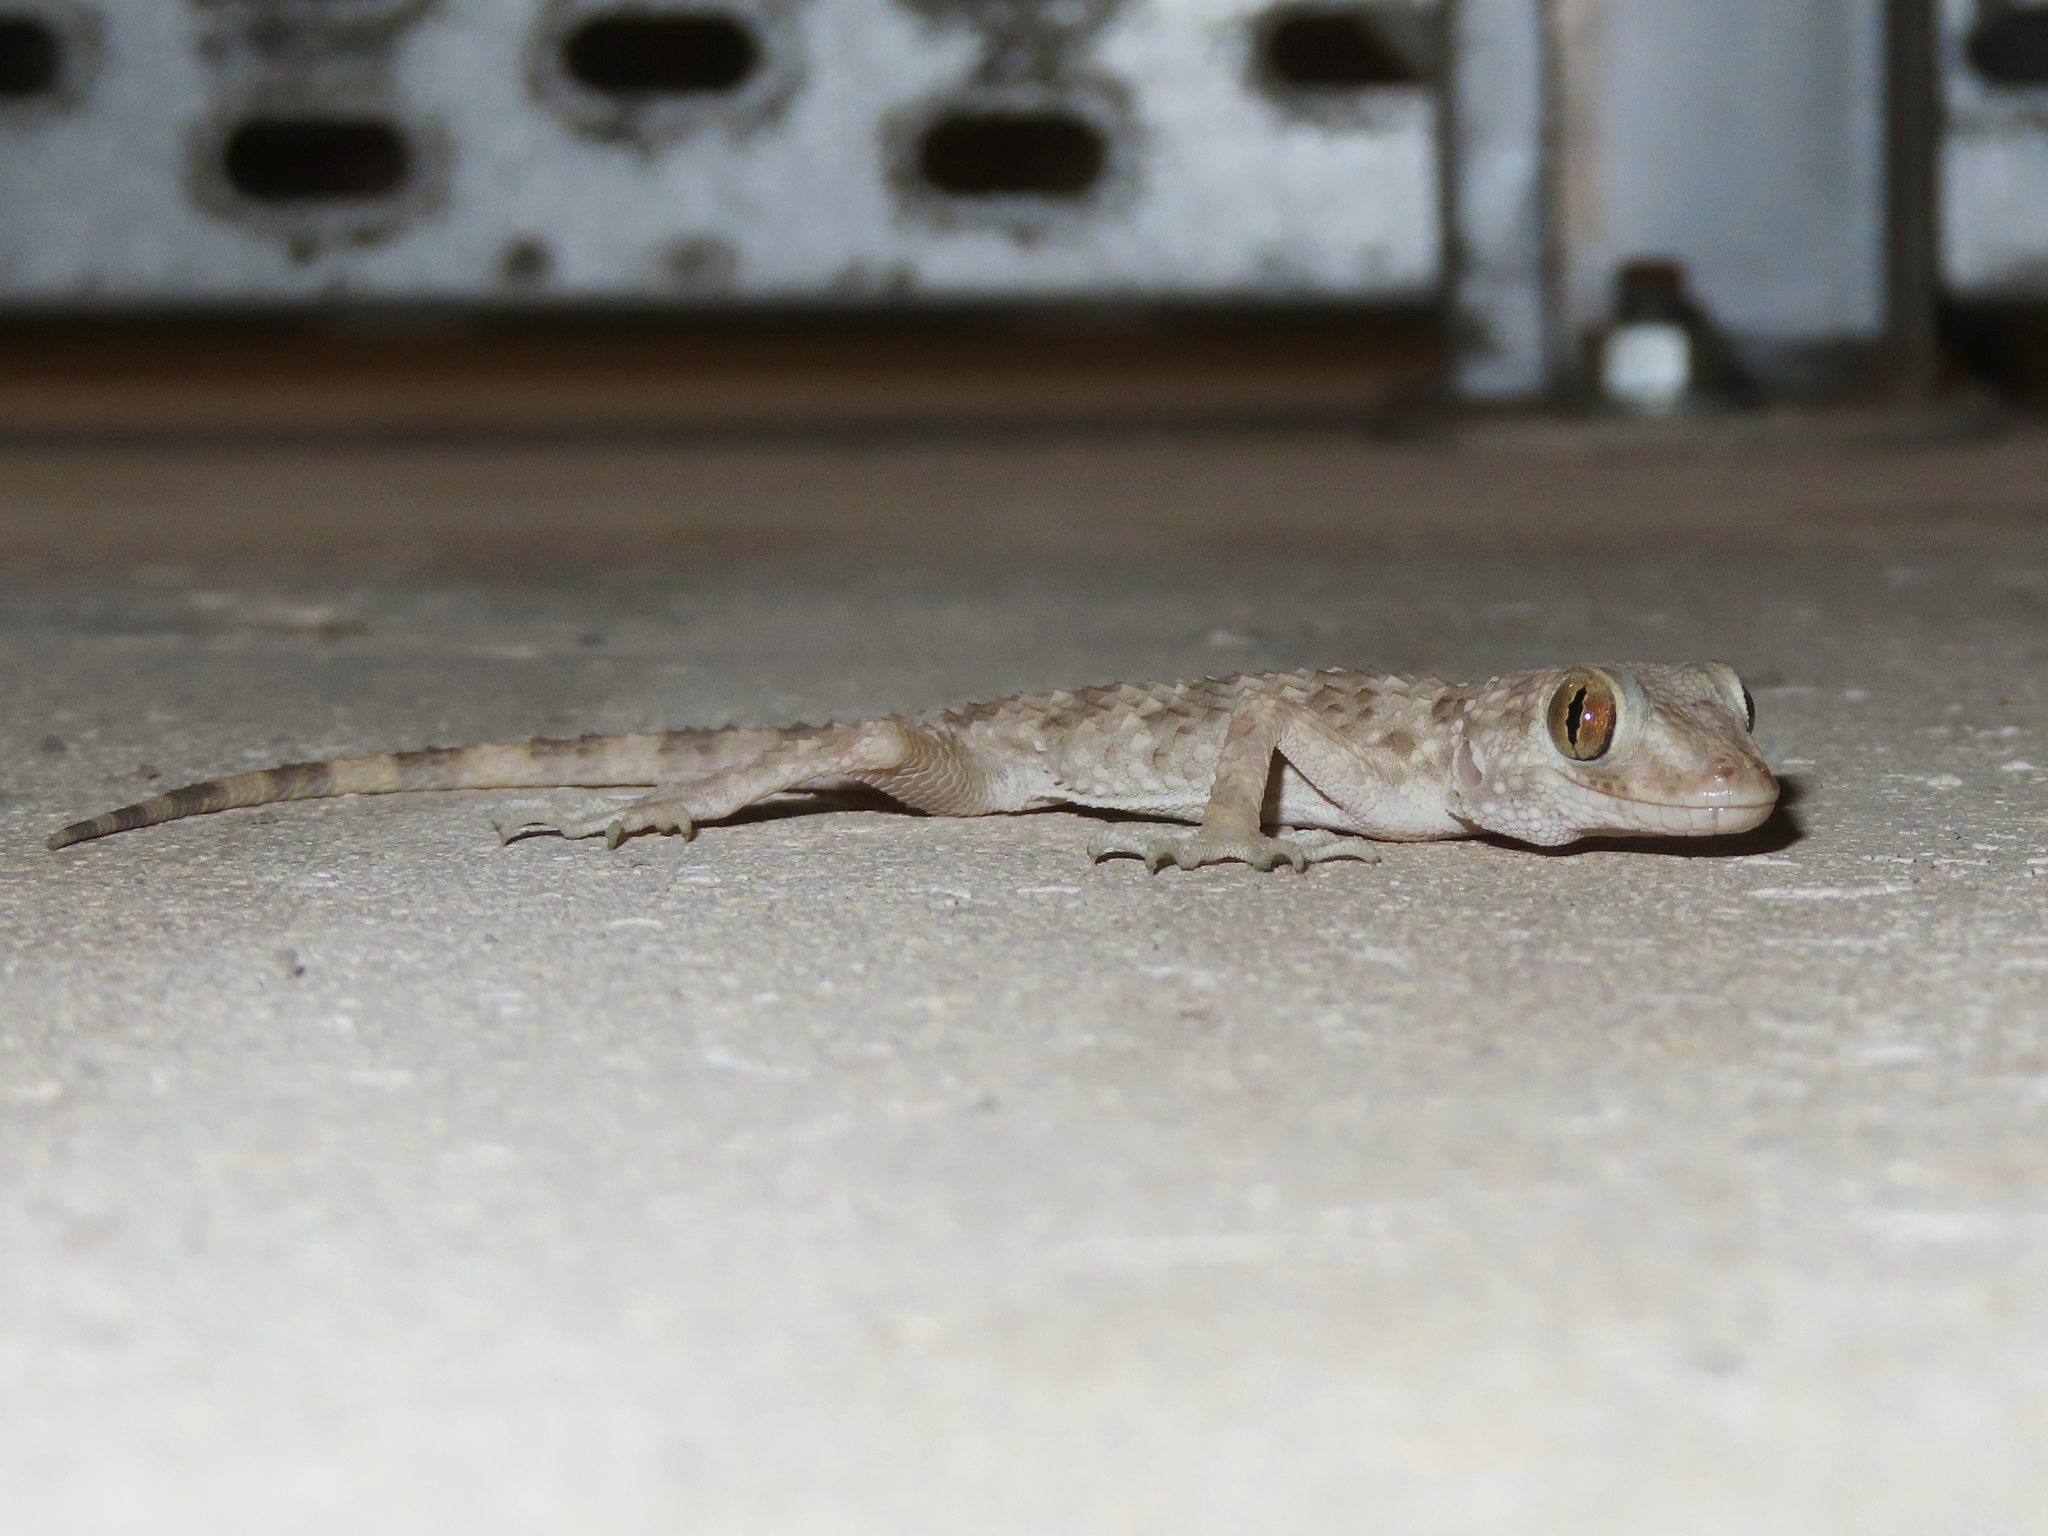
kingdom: Animalia
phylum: Chordata
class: Squamata
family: Gekkonidae
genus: Tenuidactylus
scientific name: Tenuidactylus caspius
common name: Caspian bent-toed gecko
